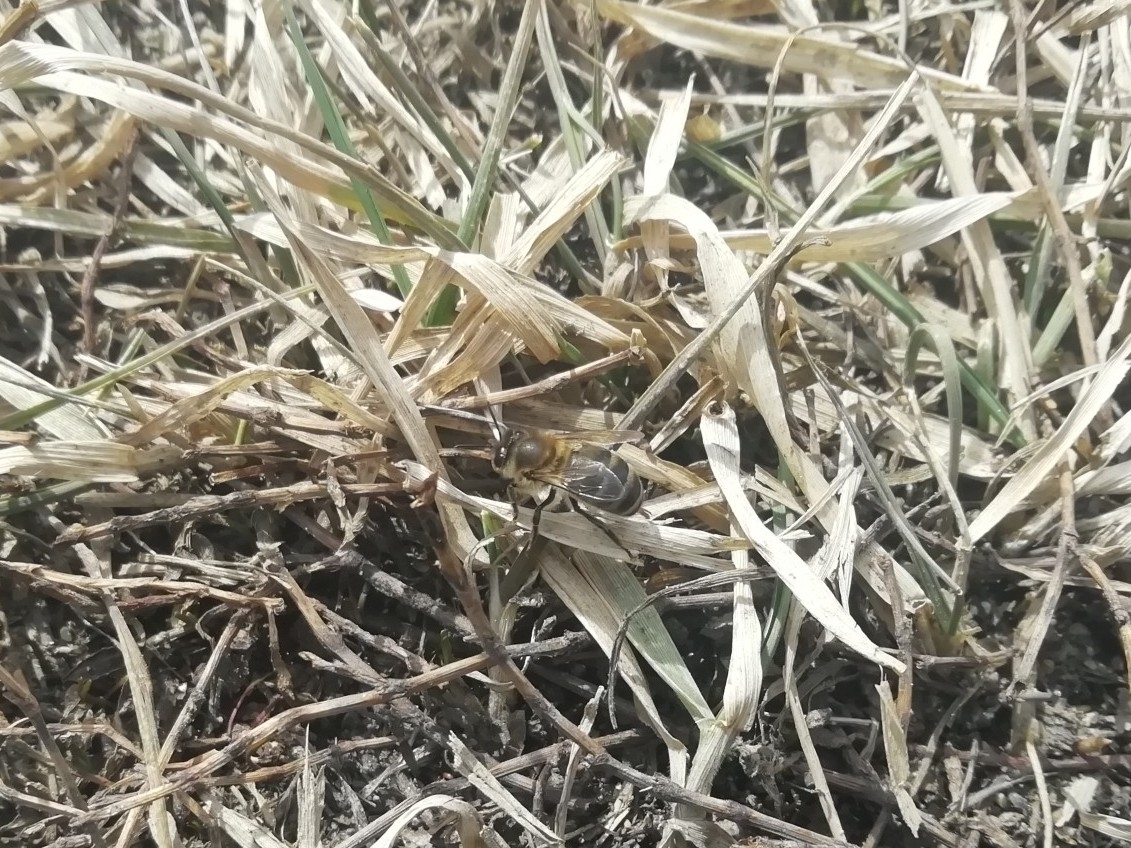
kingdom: Animalia
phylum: Arthropoda
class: Insecta
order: Hymenoptera
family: Apidae
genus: Apis
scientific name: Apis mellifera
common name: Honey bee
